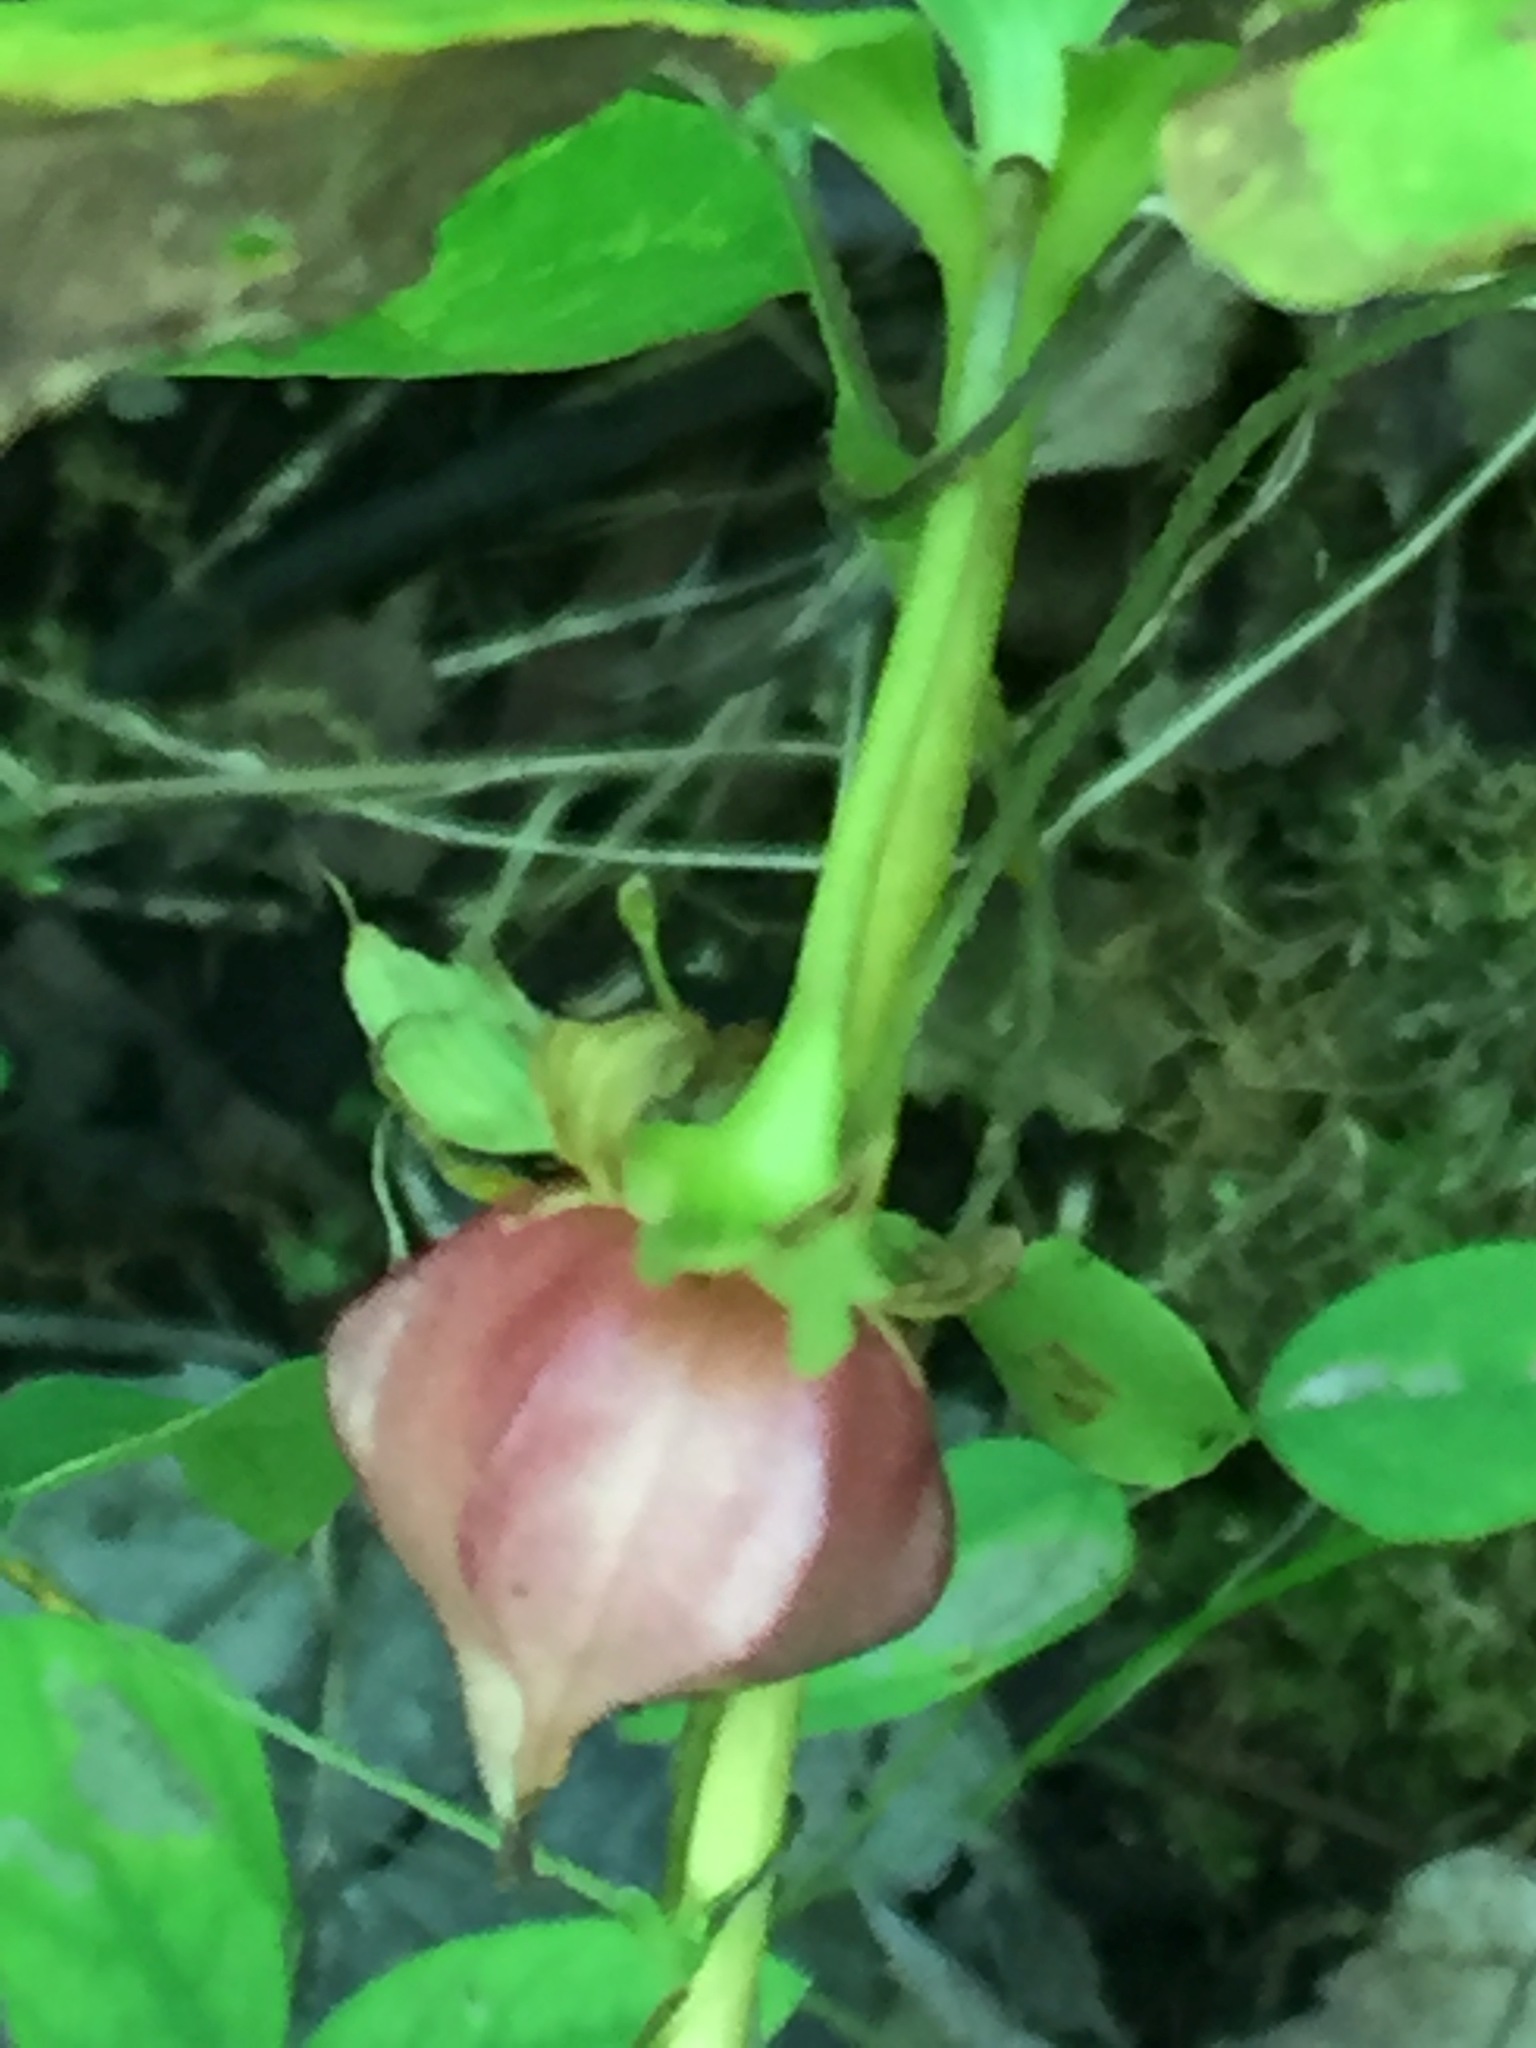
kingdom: Plantae
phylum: Tracheophyta
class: Liliopsida
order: Liliales
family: Melanthiaceae
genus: Trillium
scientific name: Trillium cernuum
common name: Nodding trillium
